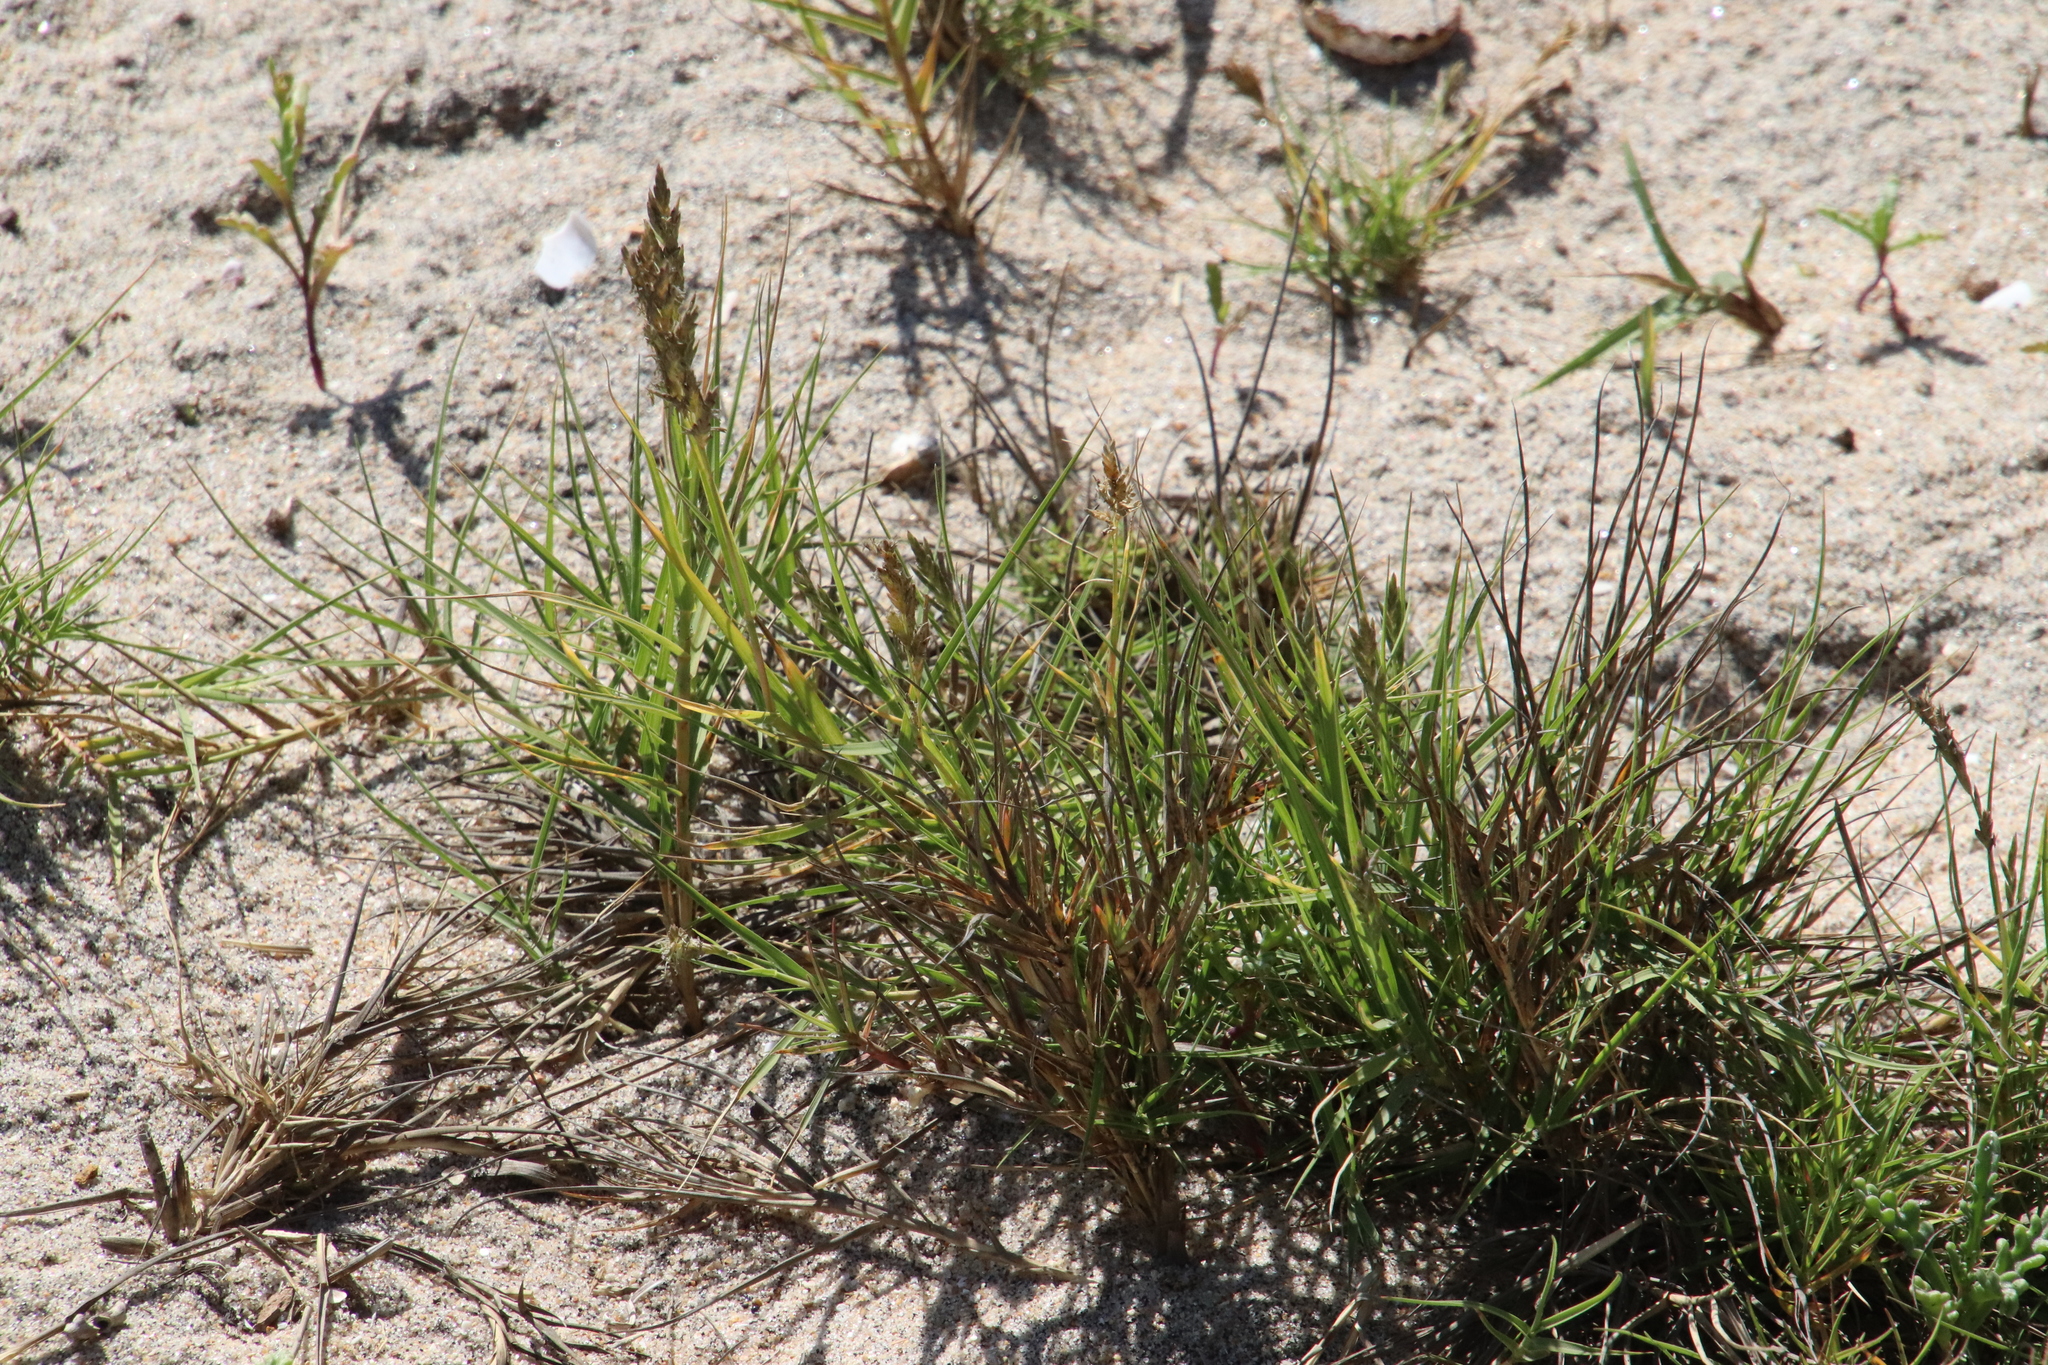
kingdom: Plantae
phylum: Tracheophyta
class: Liliopsida
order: Poales
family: Poaceae
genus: Distichlis
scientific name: Distichlis spicata
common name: Saltgrass
